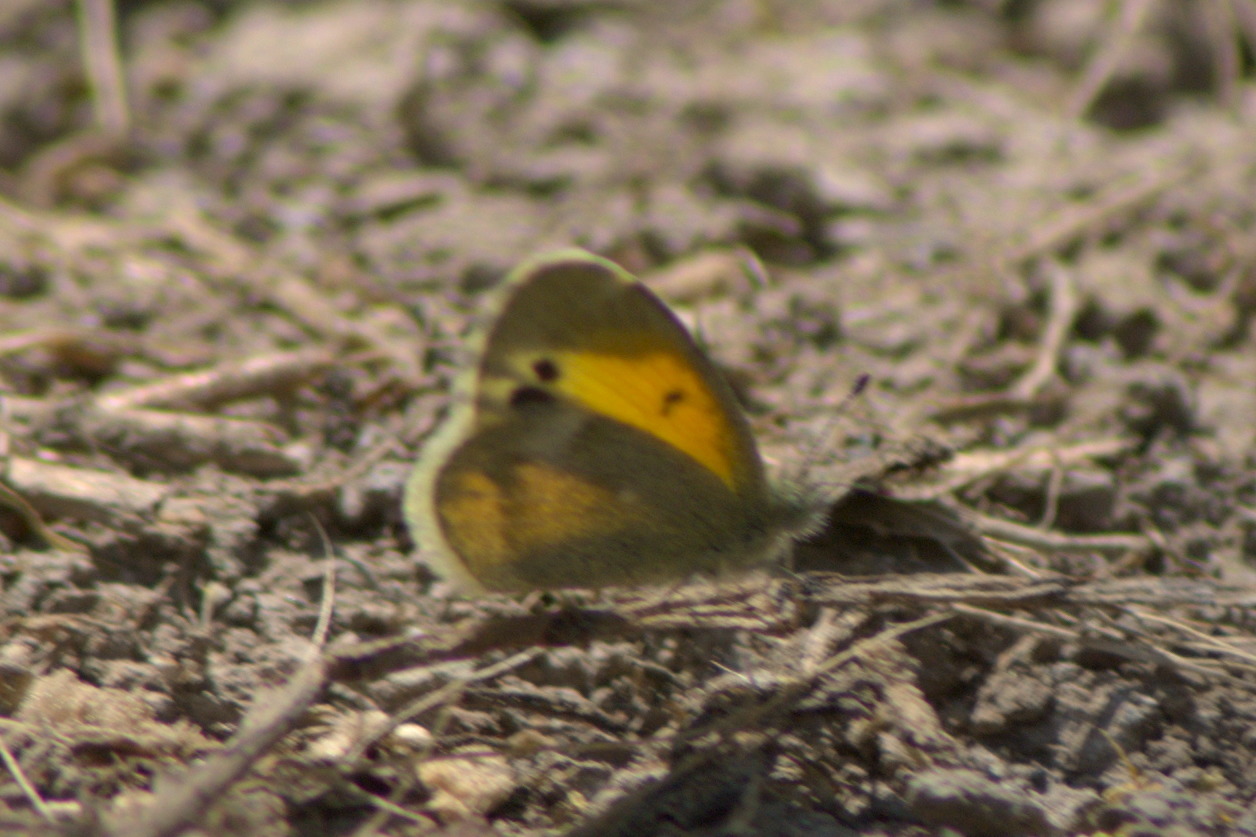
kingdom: Animalia
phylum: Arthropoda
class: Insecta
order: Lepidoptera
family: Pieridae
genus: Nathalis
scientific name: Nathalis iole
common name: Dainty sulphur
